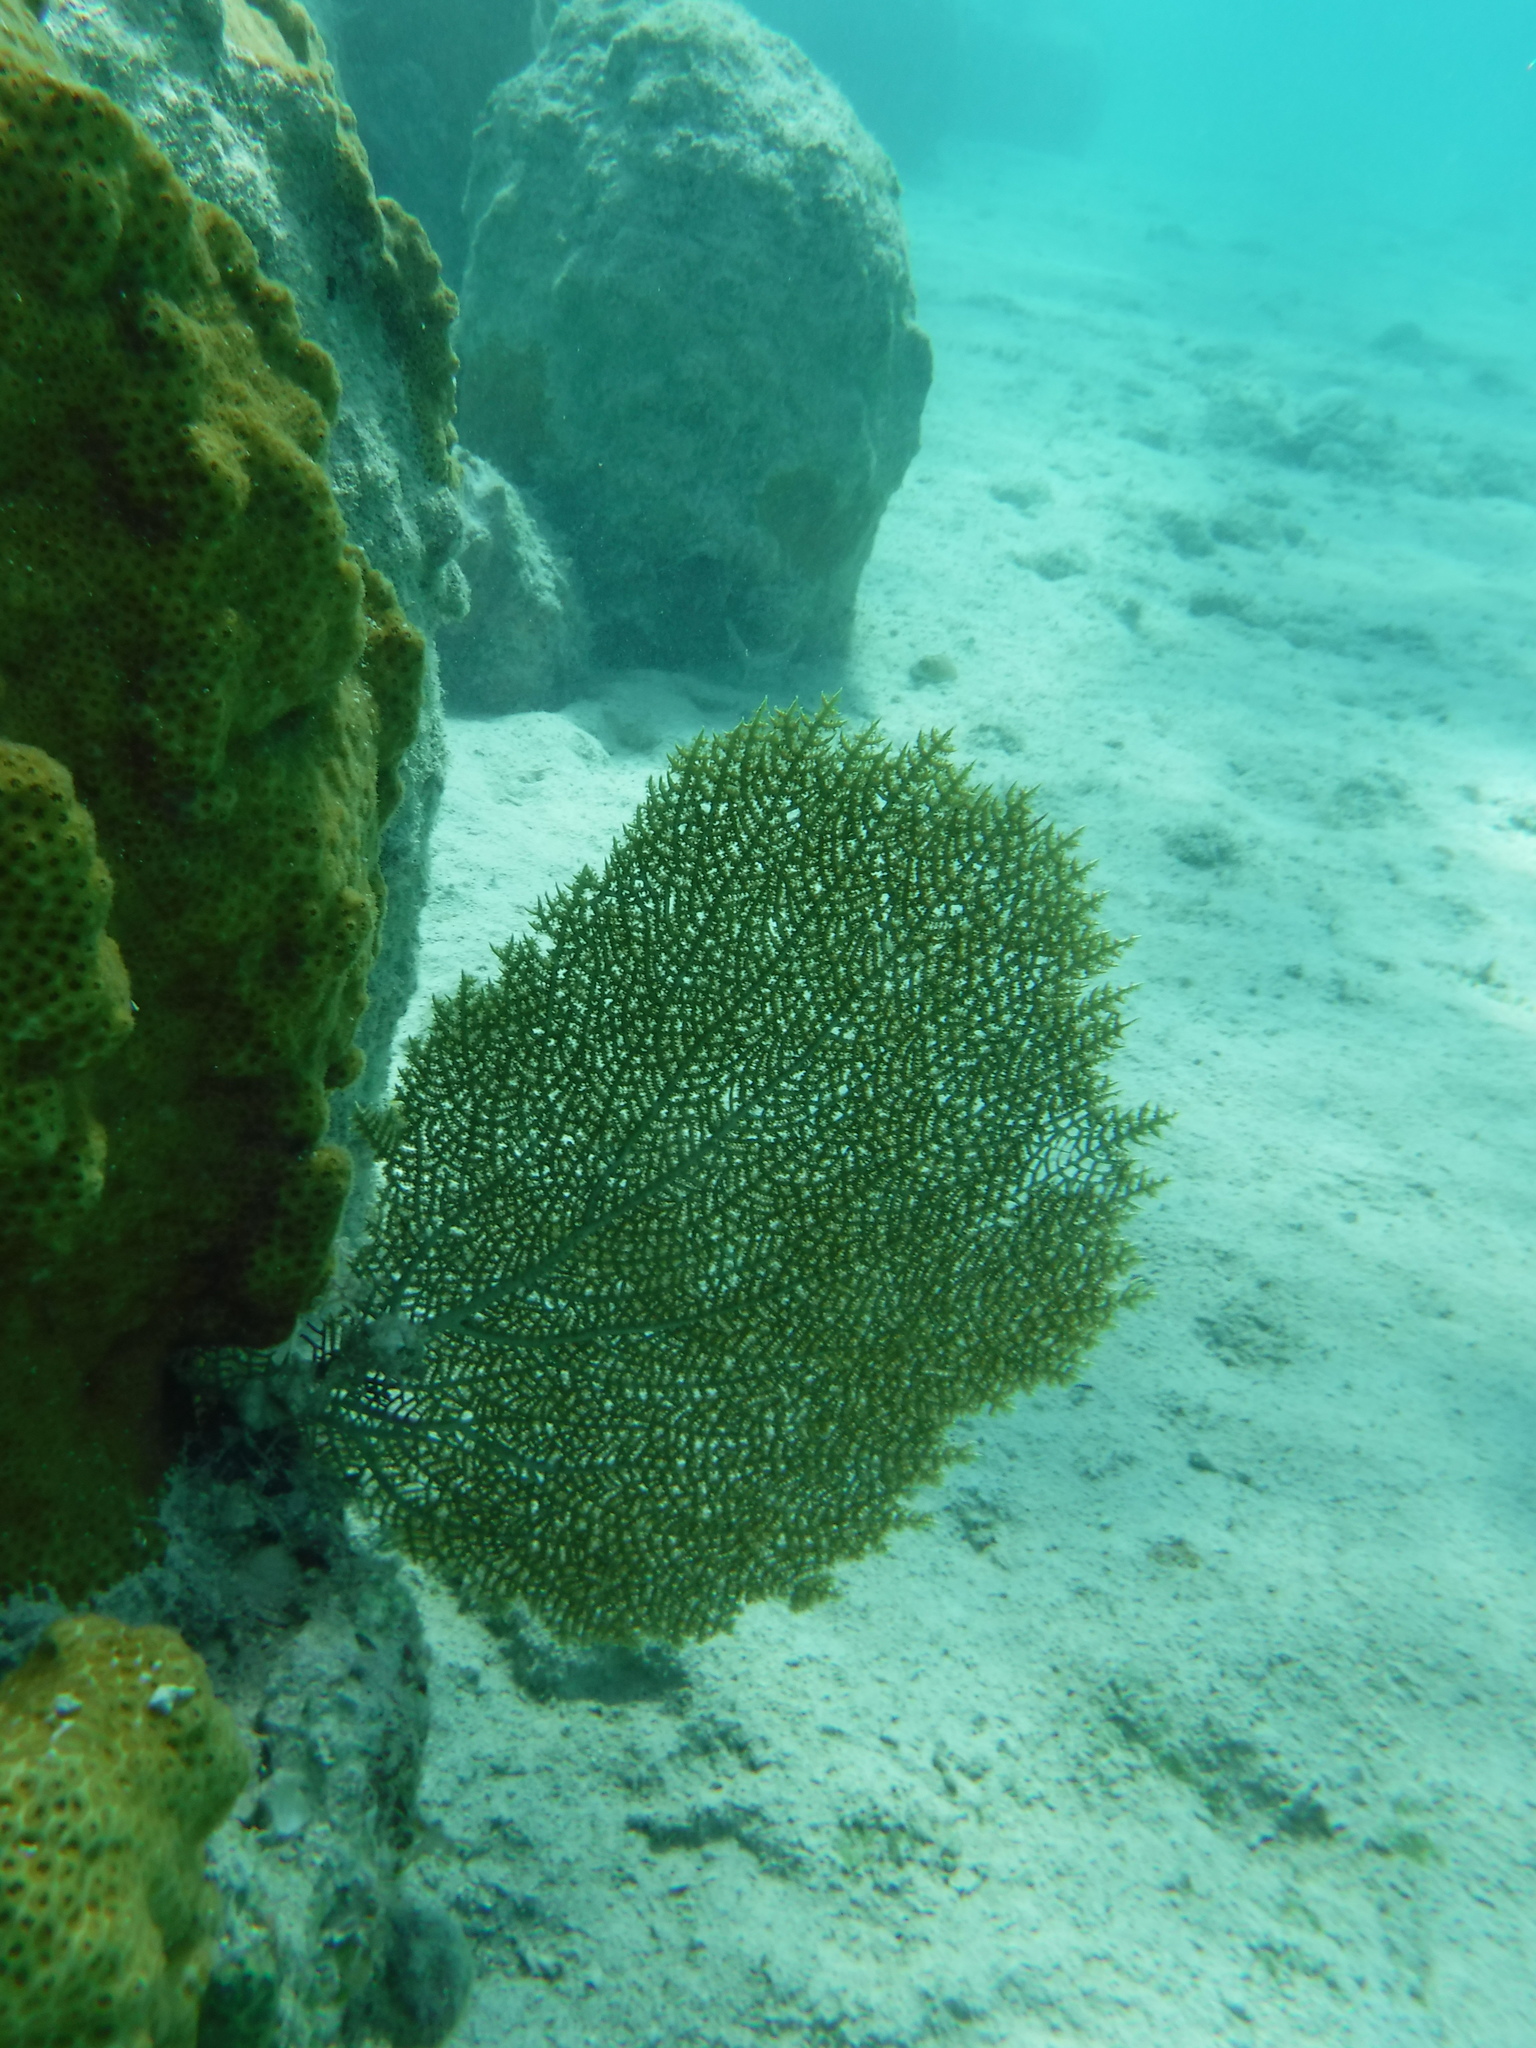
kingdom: Animalia
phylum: Cnidaria
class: Anthozoa
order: Malacalcyonacea
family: Gorgoniidae
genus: Gorgonia
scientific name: Gorgonia ventalina
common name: Common sea fan
